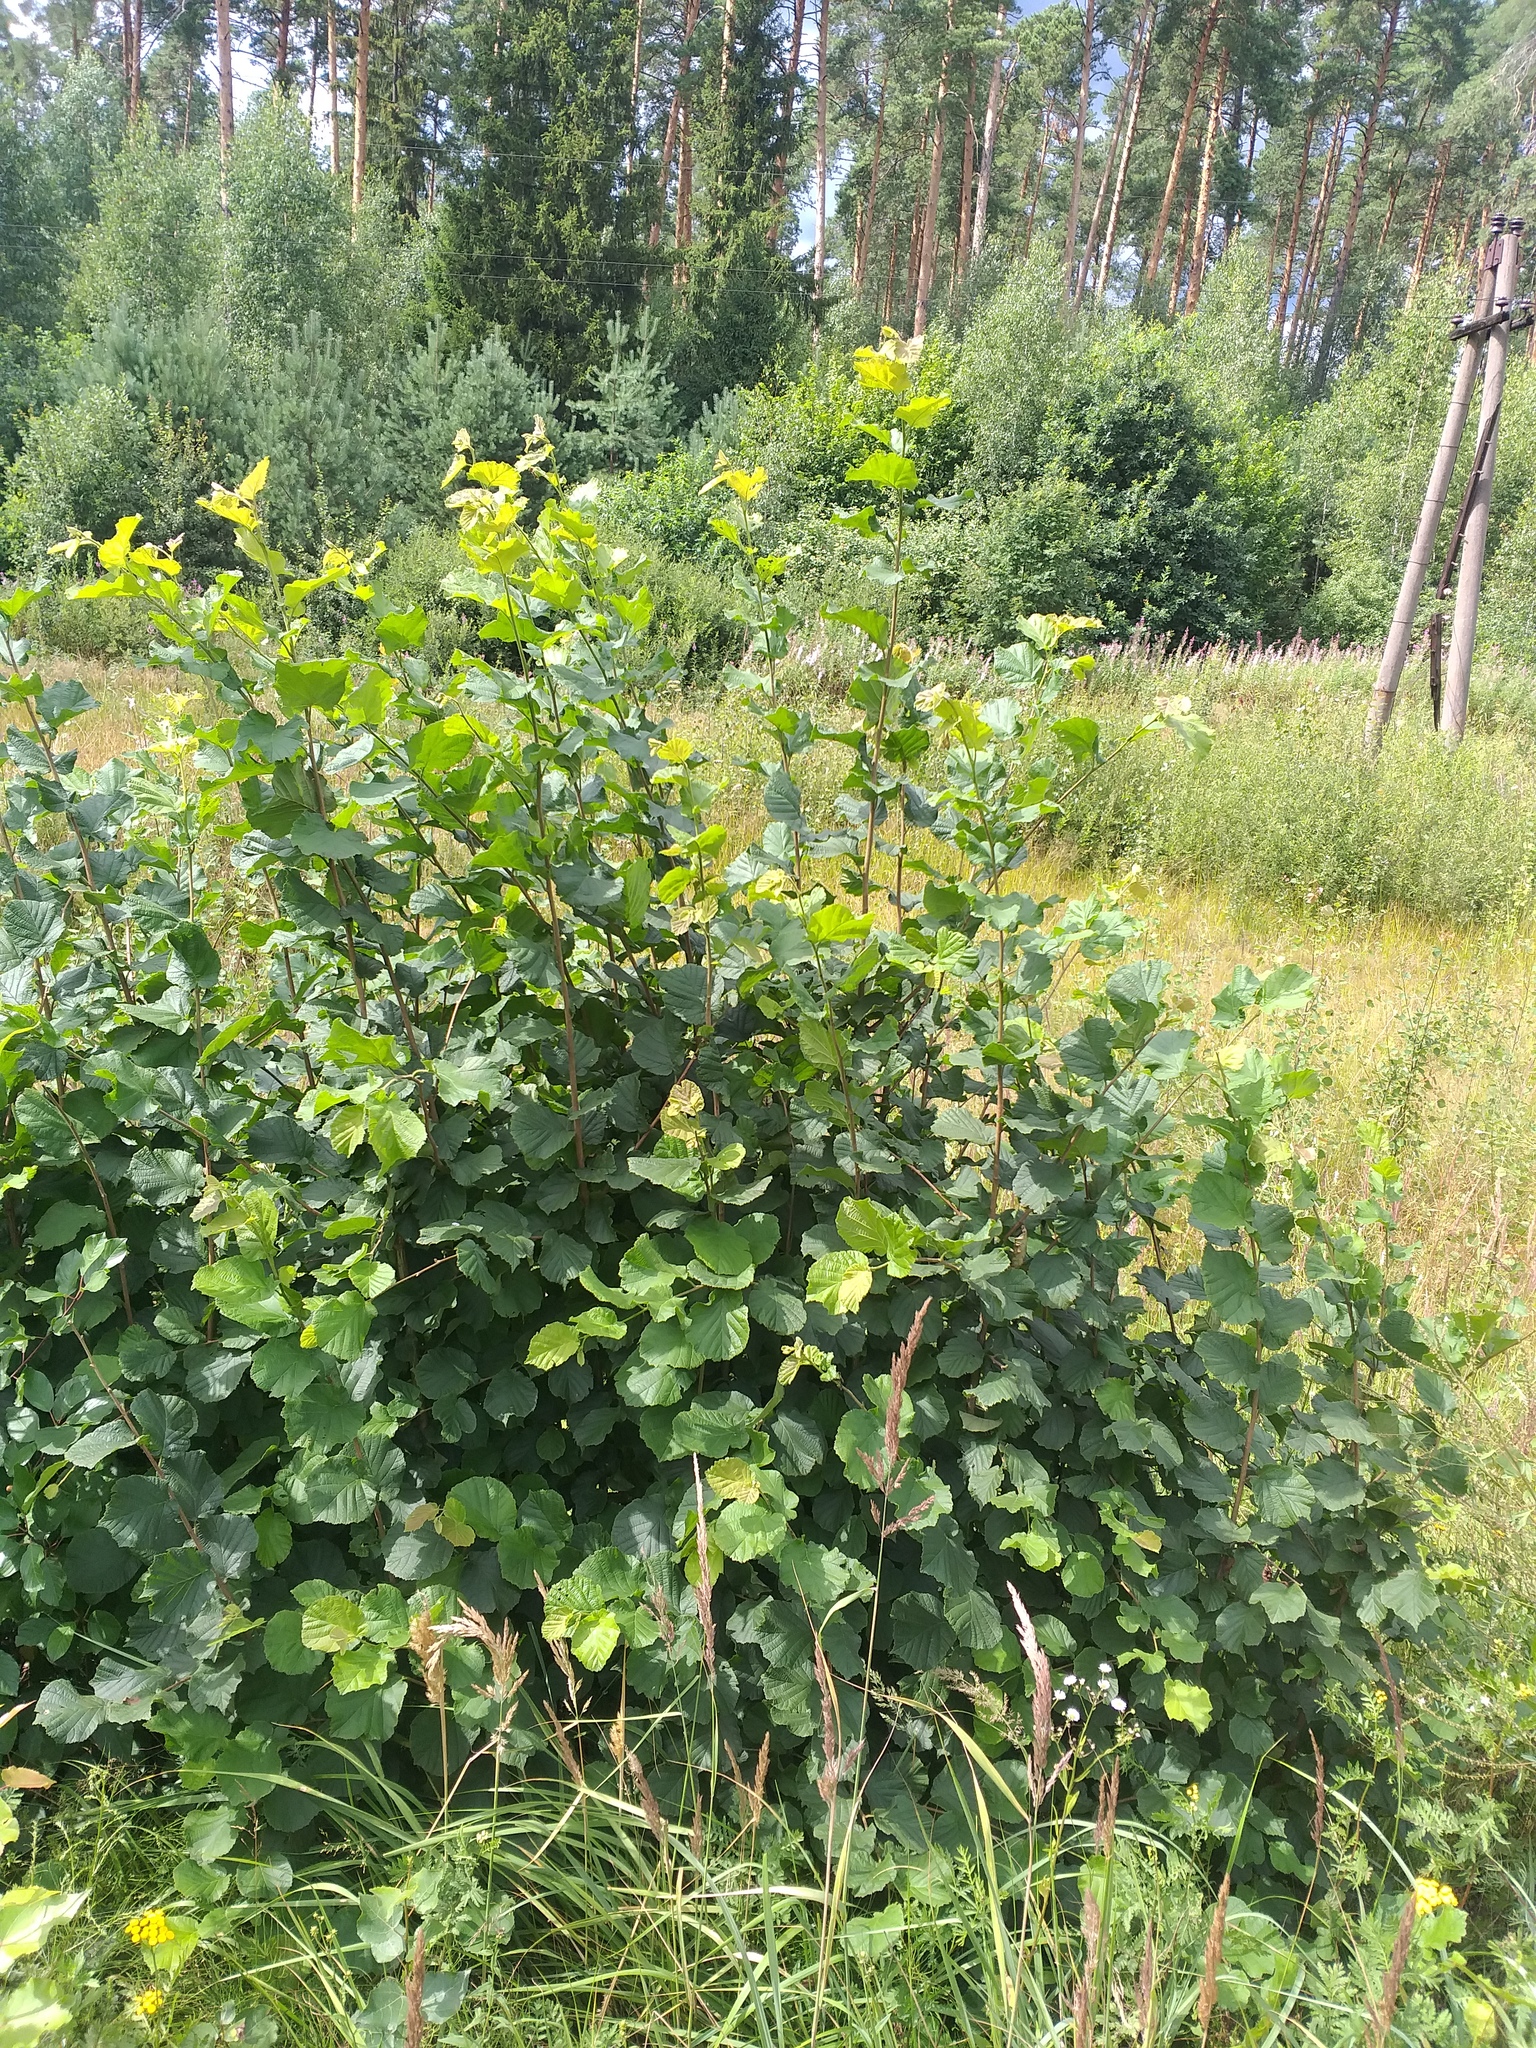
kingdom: Plantae
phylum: Tracheophyta
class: Magnoliopsida
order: Fagales
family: Betulaceae
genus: Corylus
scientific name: Corylus avellana
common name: European hazel
